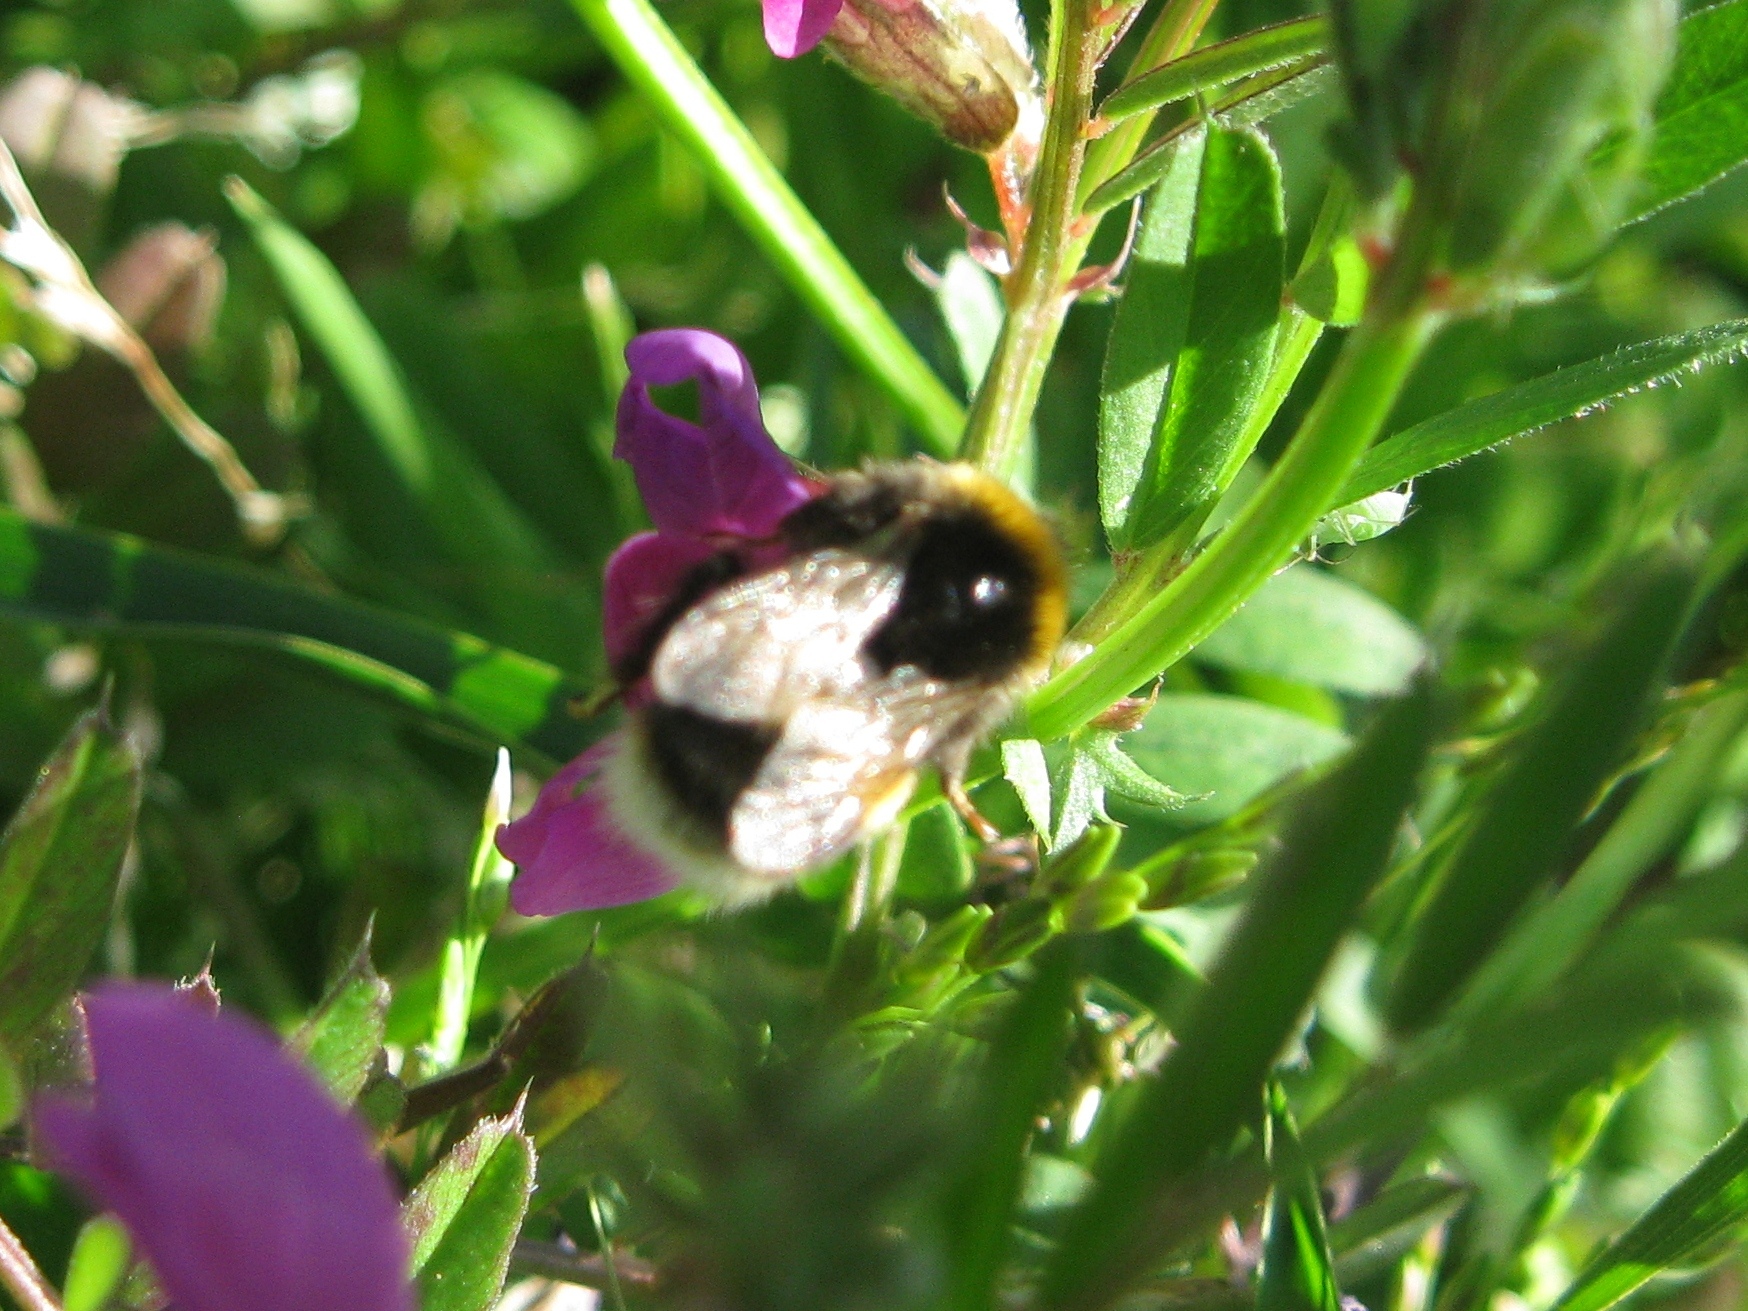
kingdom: Animalia
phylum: Arthropoda
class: Insecta
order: Hymenoptera
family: Apidae
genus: Bombus
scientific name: Bombus terrestris
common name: Buff-tailed bumblebee
